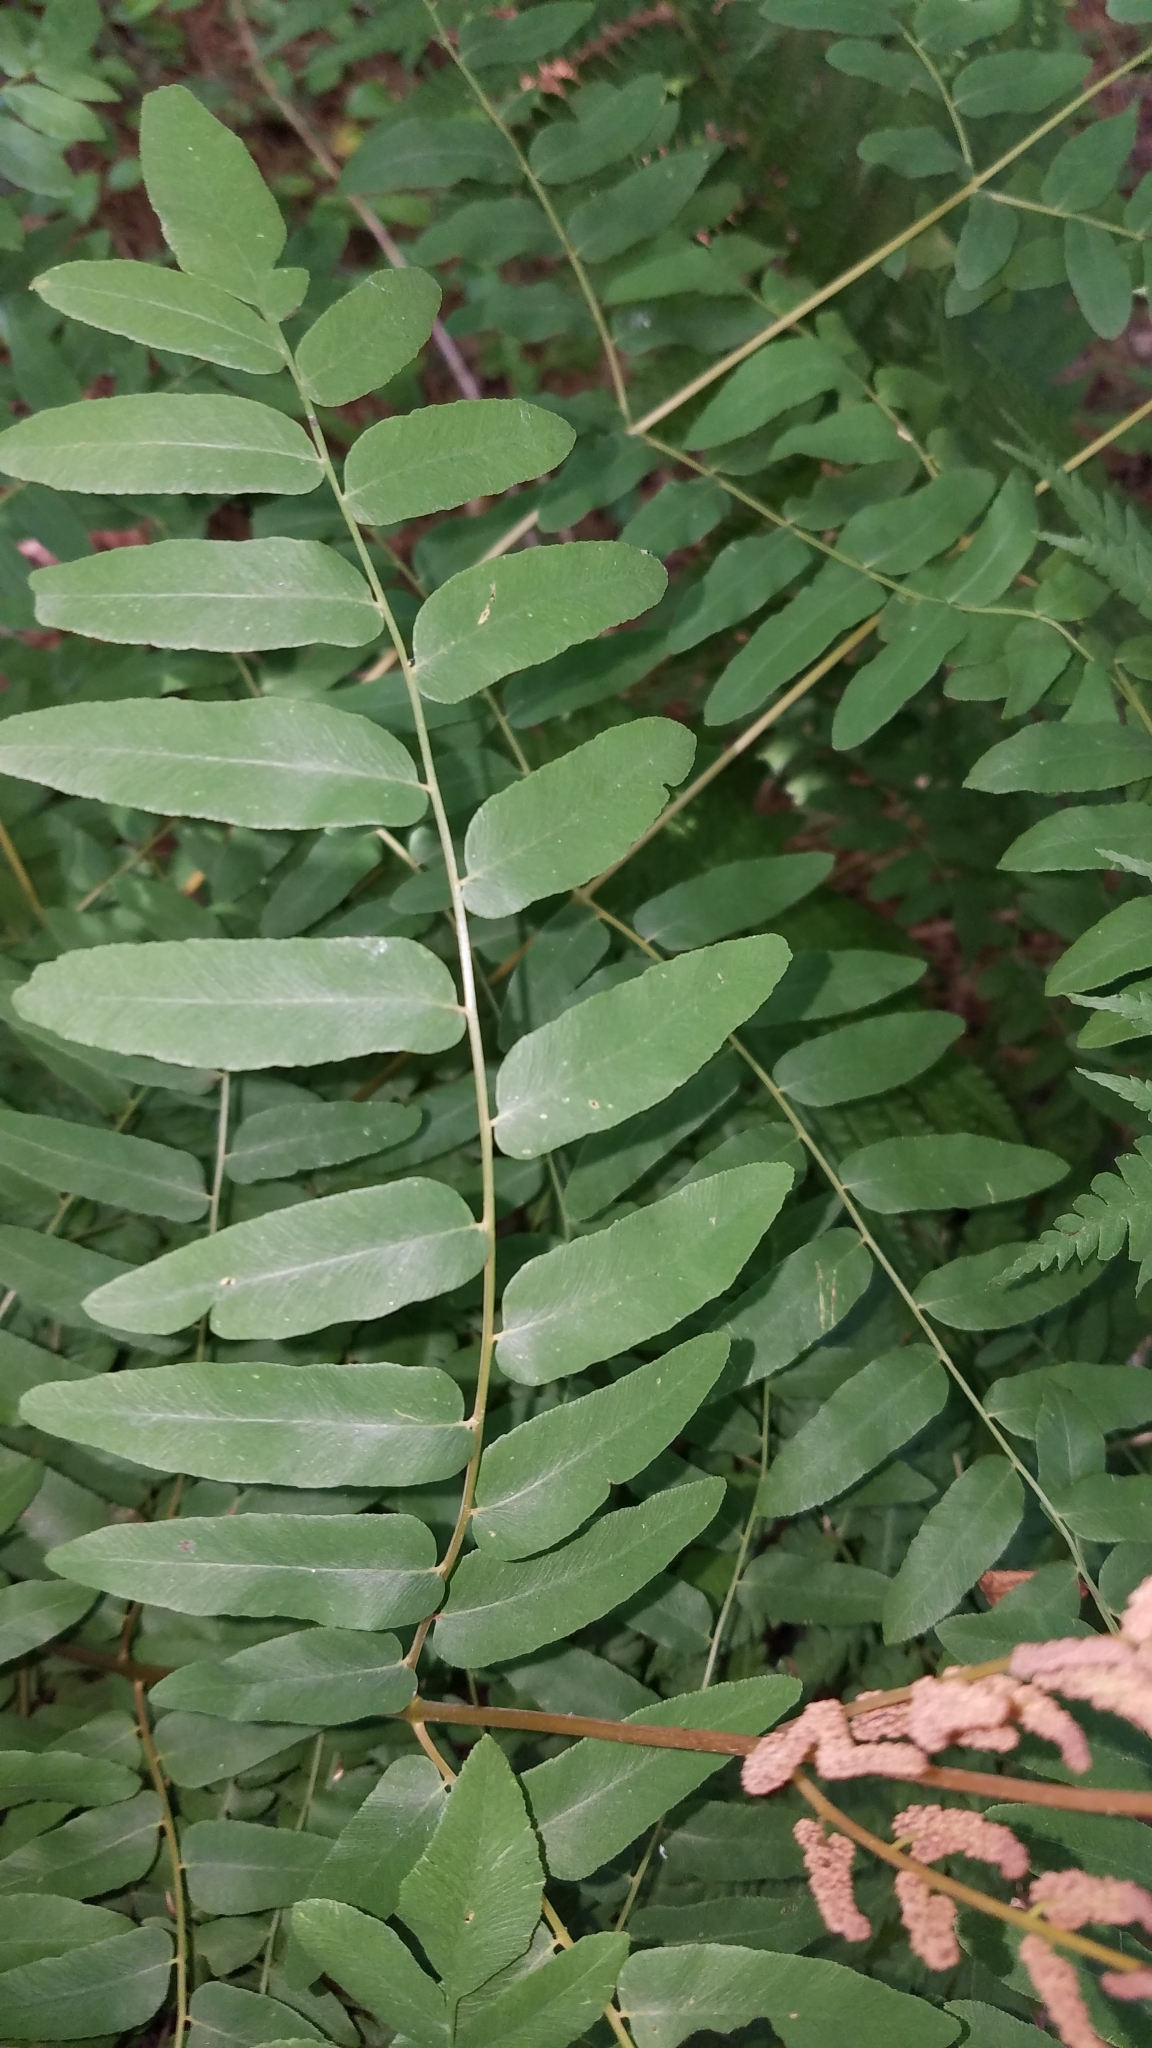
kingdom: Plantae
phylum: Tracheophyta
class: Polypodiopsida
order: Osmundales
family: Osmundaceae
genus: Osmunda
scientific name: Osmunda spectabilis
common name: American royal fern
